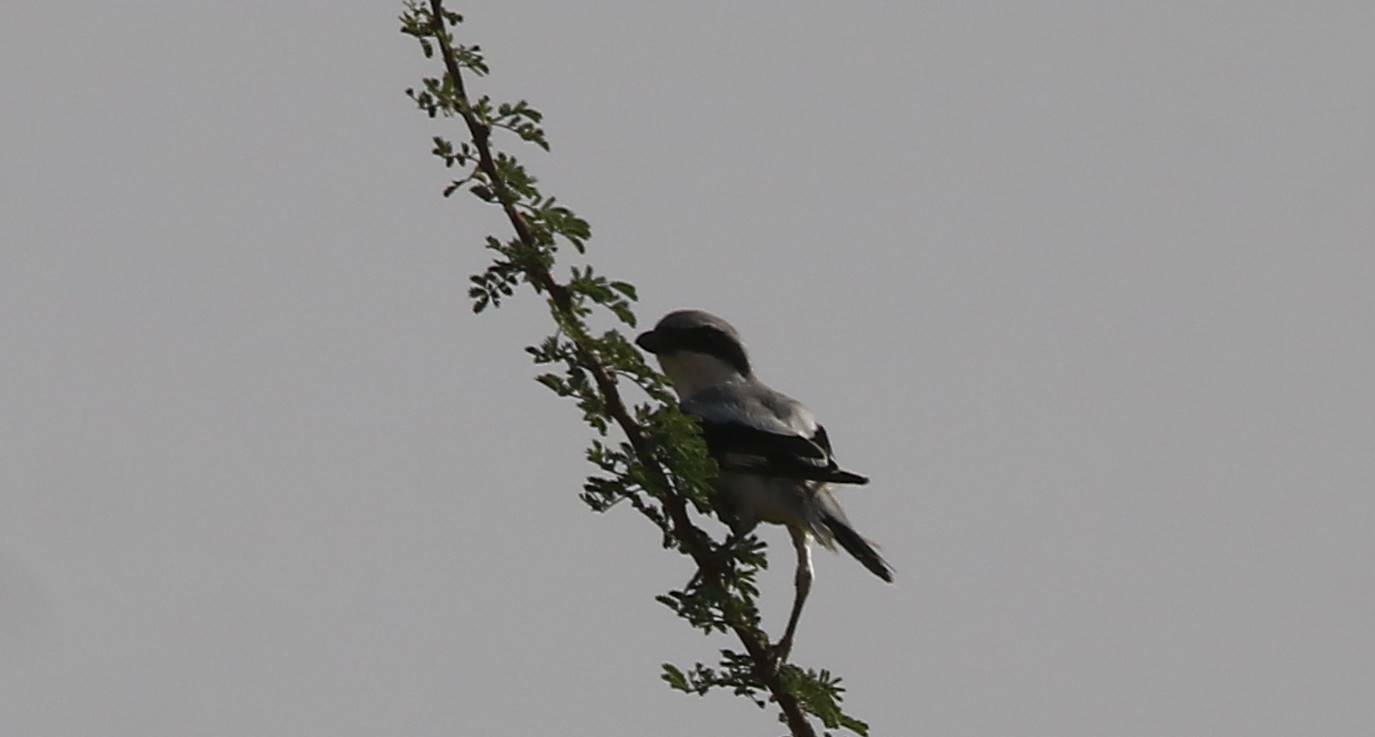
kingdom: Animalia
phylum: Chordata
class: Aves
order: Passeriformes
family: Laniidae
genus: Lanius
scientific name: Lanius excubitor
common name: Great grey shrike
